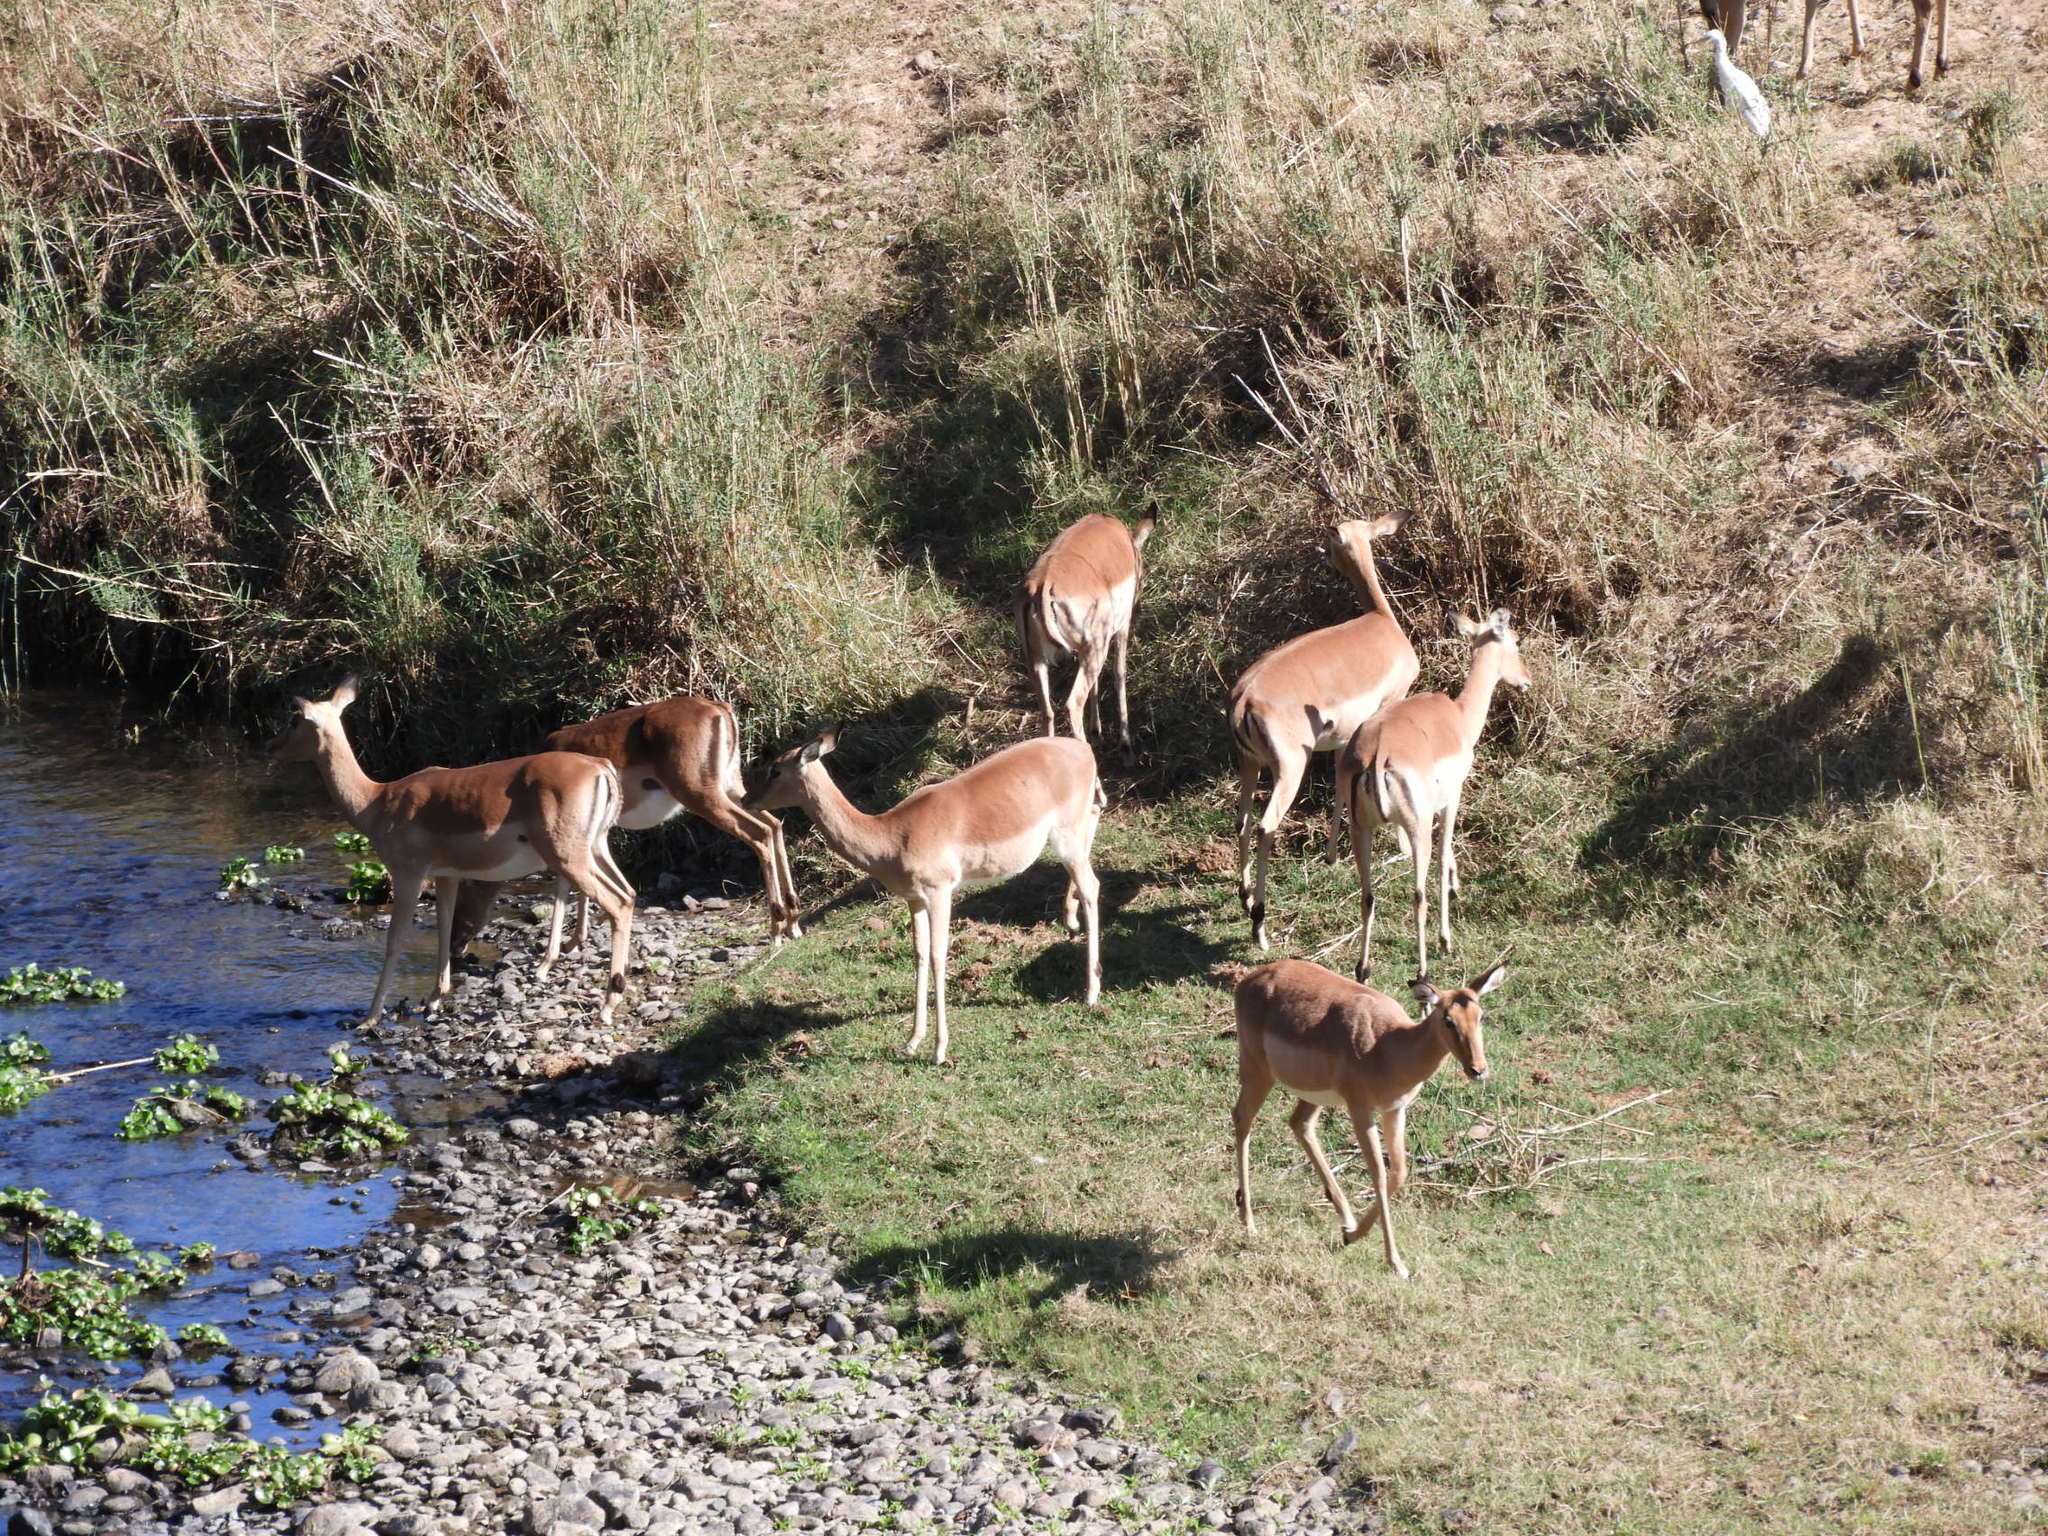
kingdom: Animalia
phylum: Chordata
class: Mammalia
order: Artiodactyla
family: Bovidae
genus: Aepyceros
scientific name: Aepyceros melampus
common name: Impala
